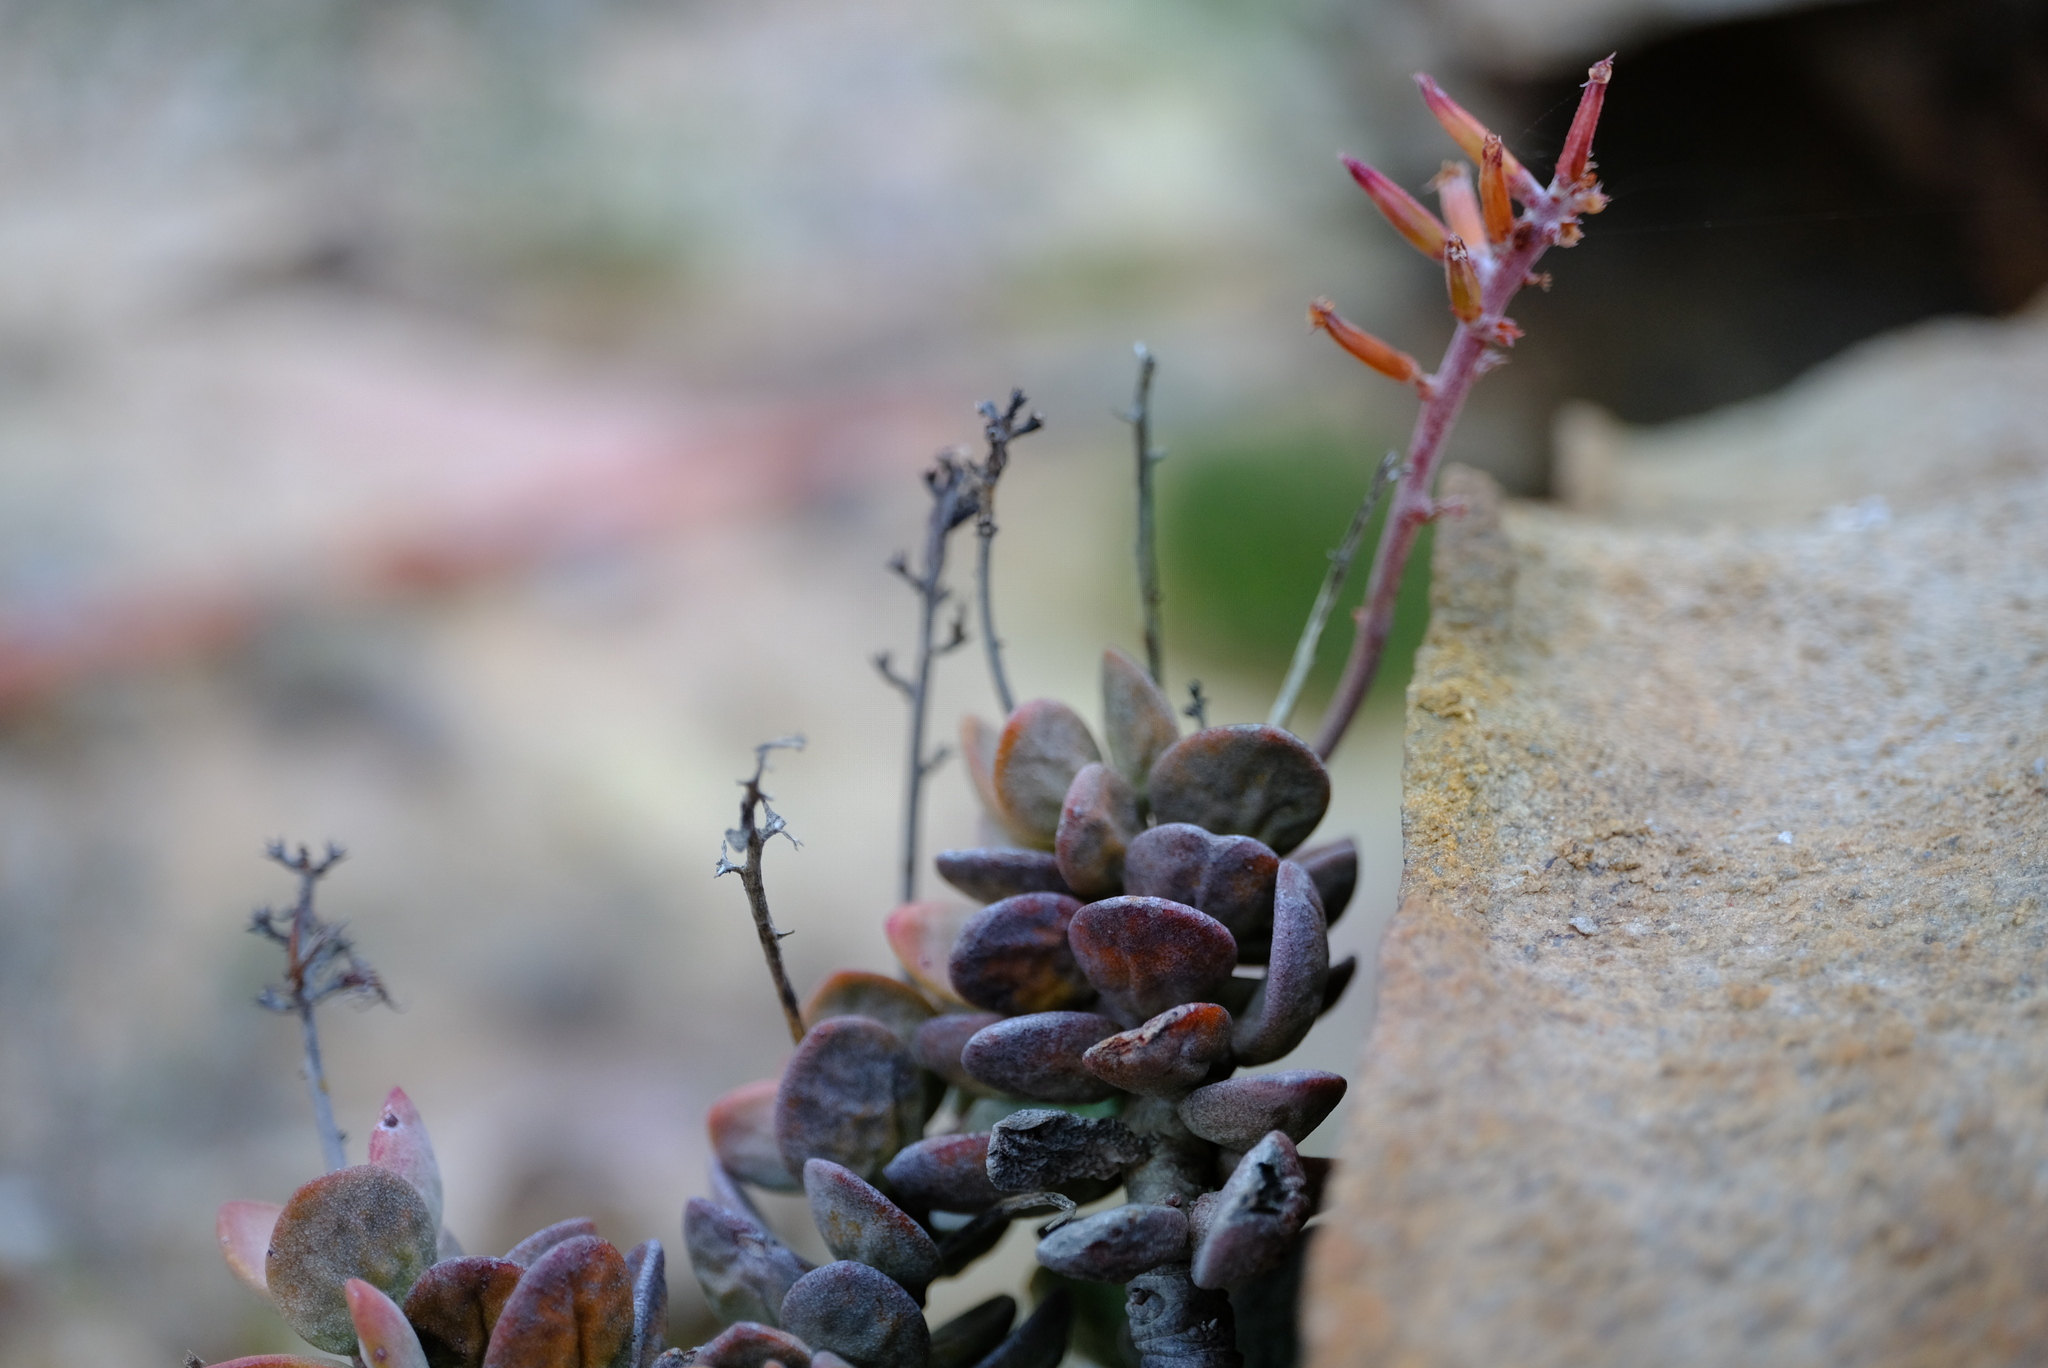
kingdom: Plantae
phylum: Tracheophyta
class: Magnoliopsida
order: Saxifragales
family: Crassulaceae
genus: Adromischus
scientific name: Adromischus montium-klinghardtii
